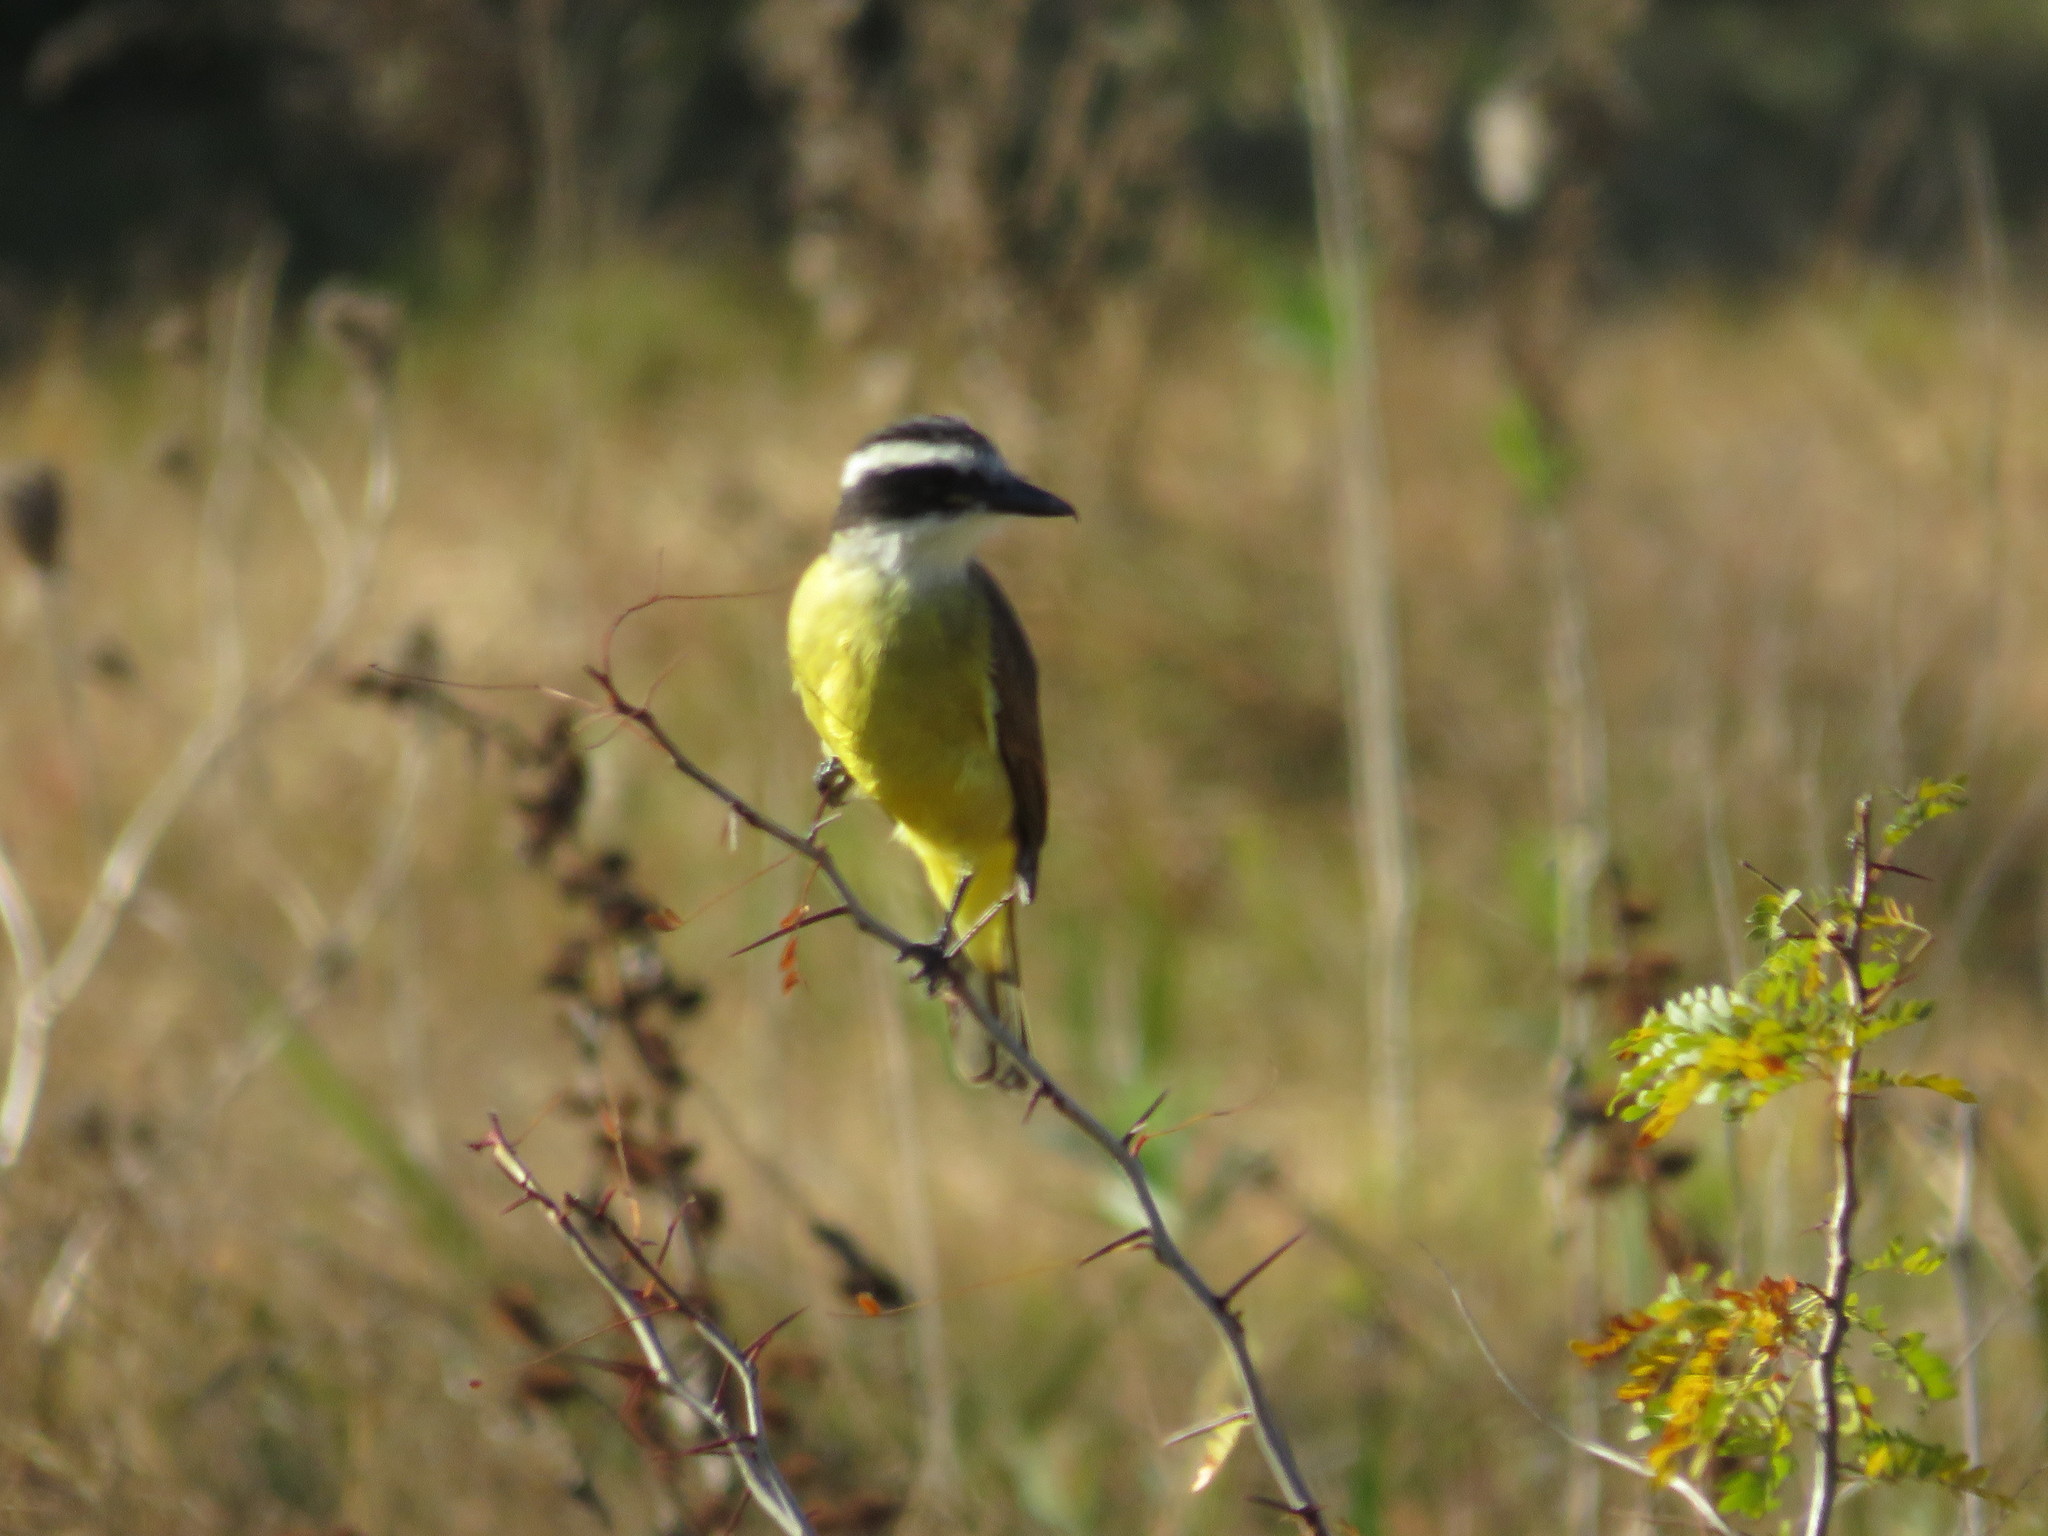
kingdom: Animalia
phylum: Chordata
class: Aves
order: Passeriformes
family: Tyrannidae
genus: Pitangus
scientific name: Pitangus sulphuratus
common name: Great kiskadee
